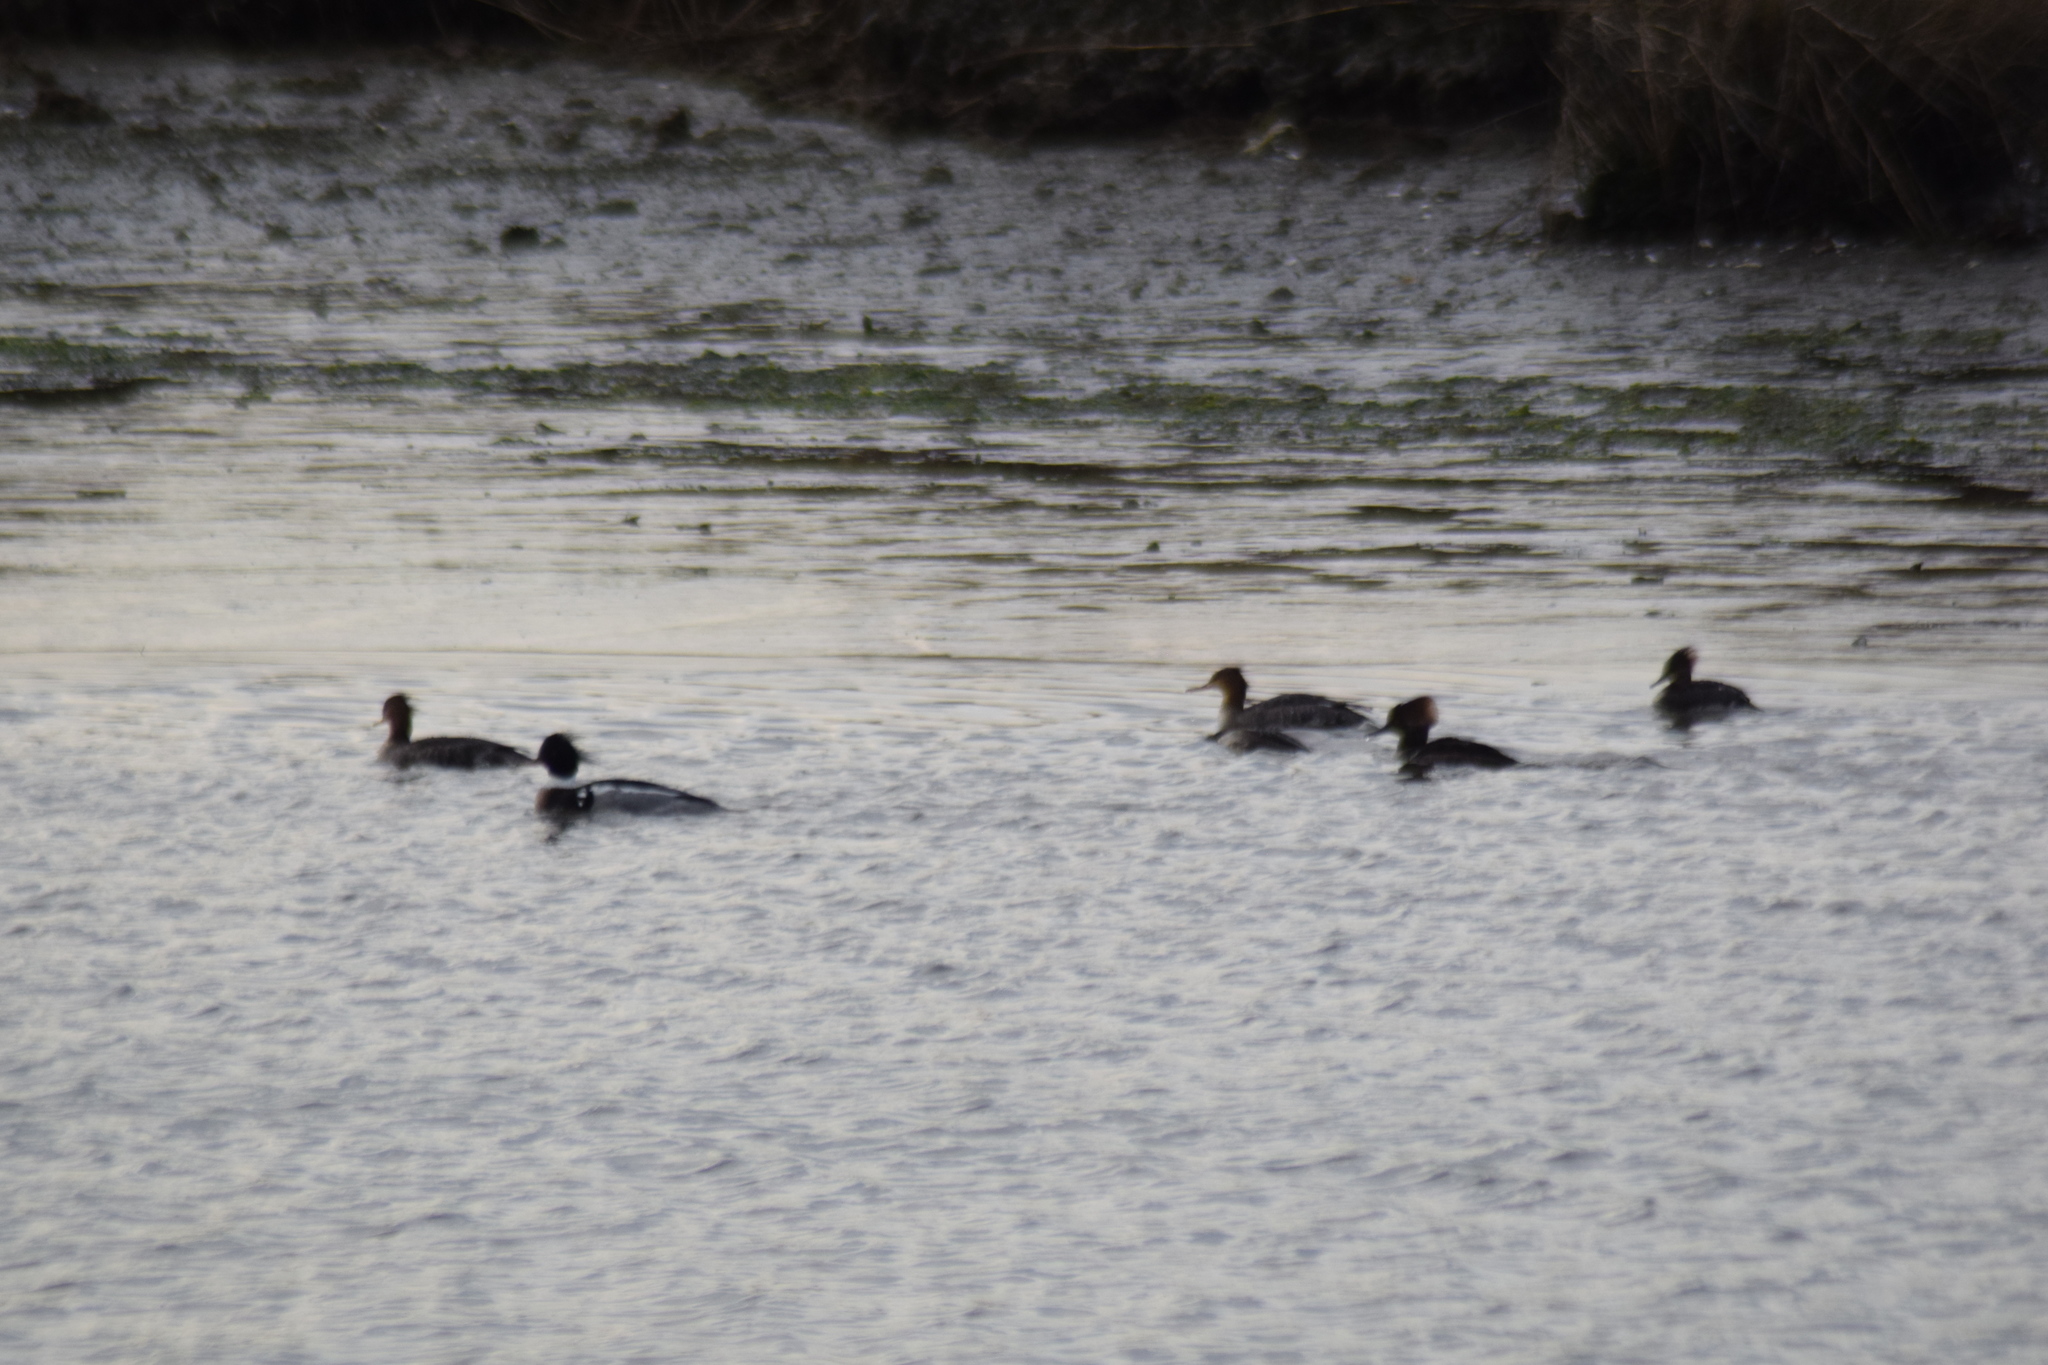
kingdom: Animalia
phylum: Chordata
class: Aves
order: Anseriformes
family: Anatidae
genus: Mergus
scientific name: Mergus serrator
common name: Red-breasted merganser
